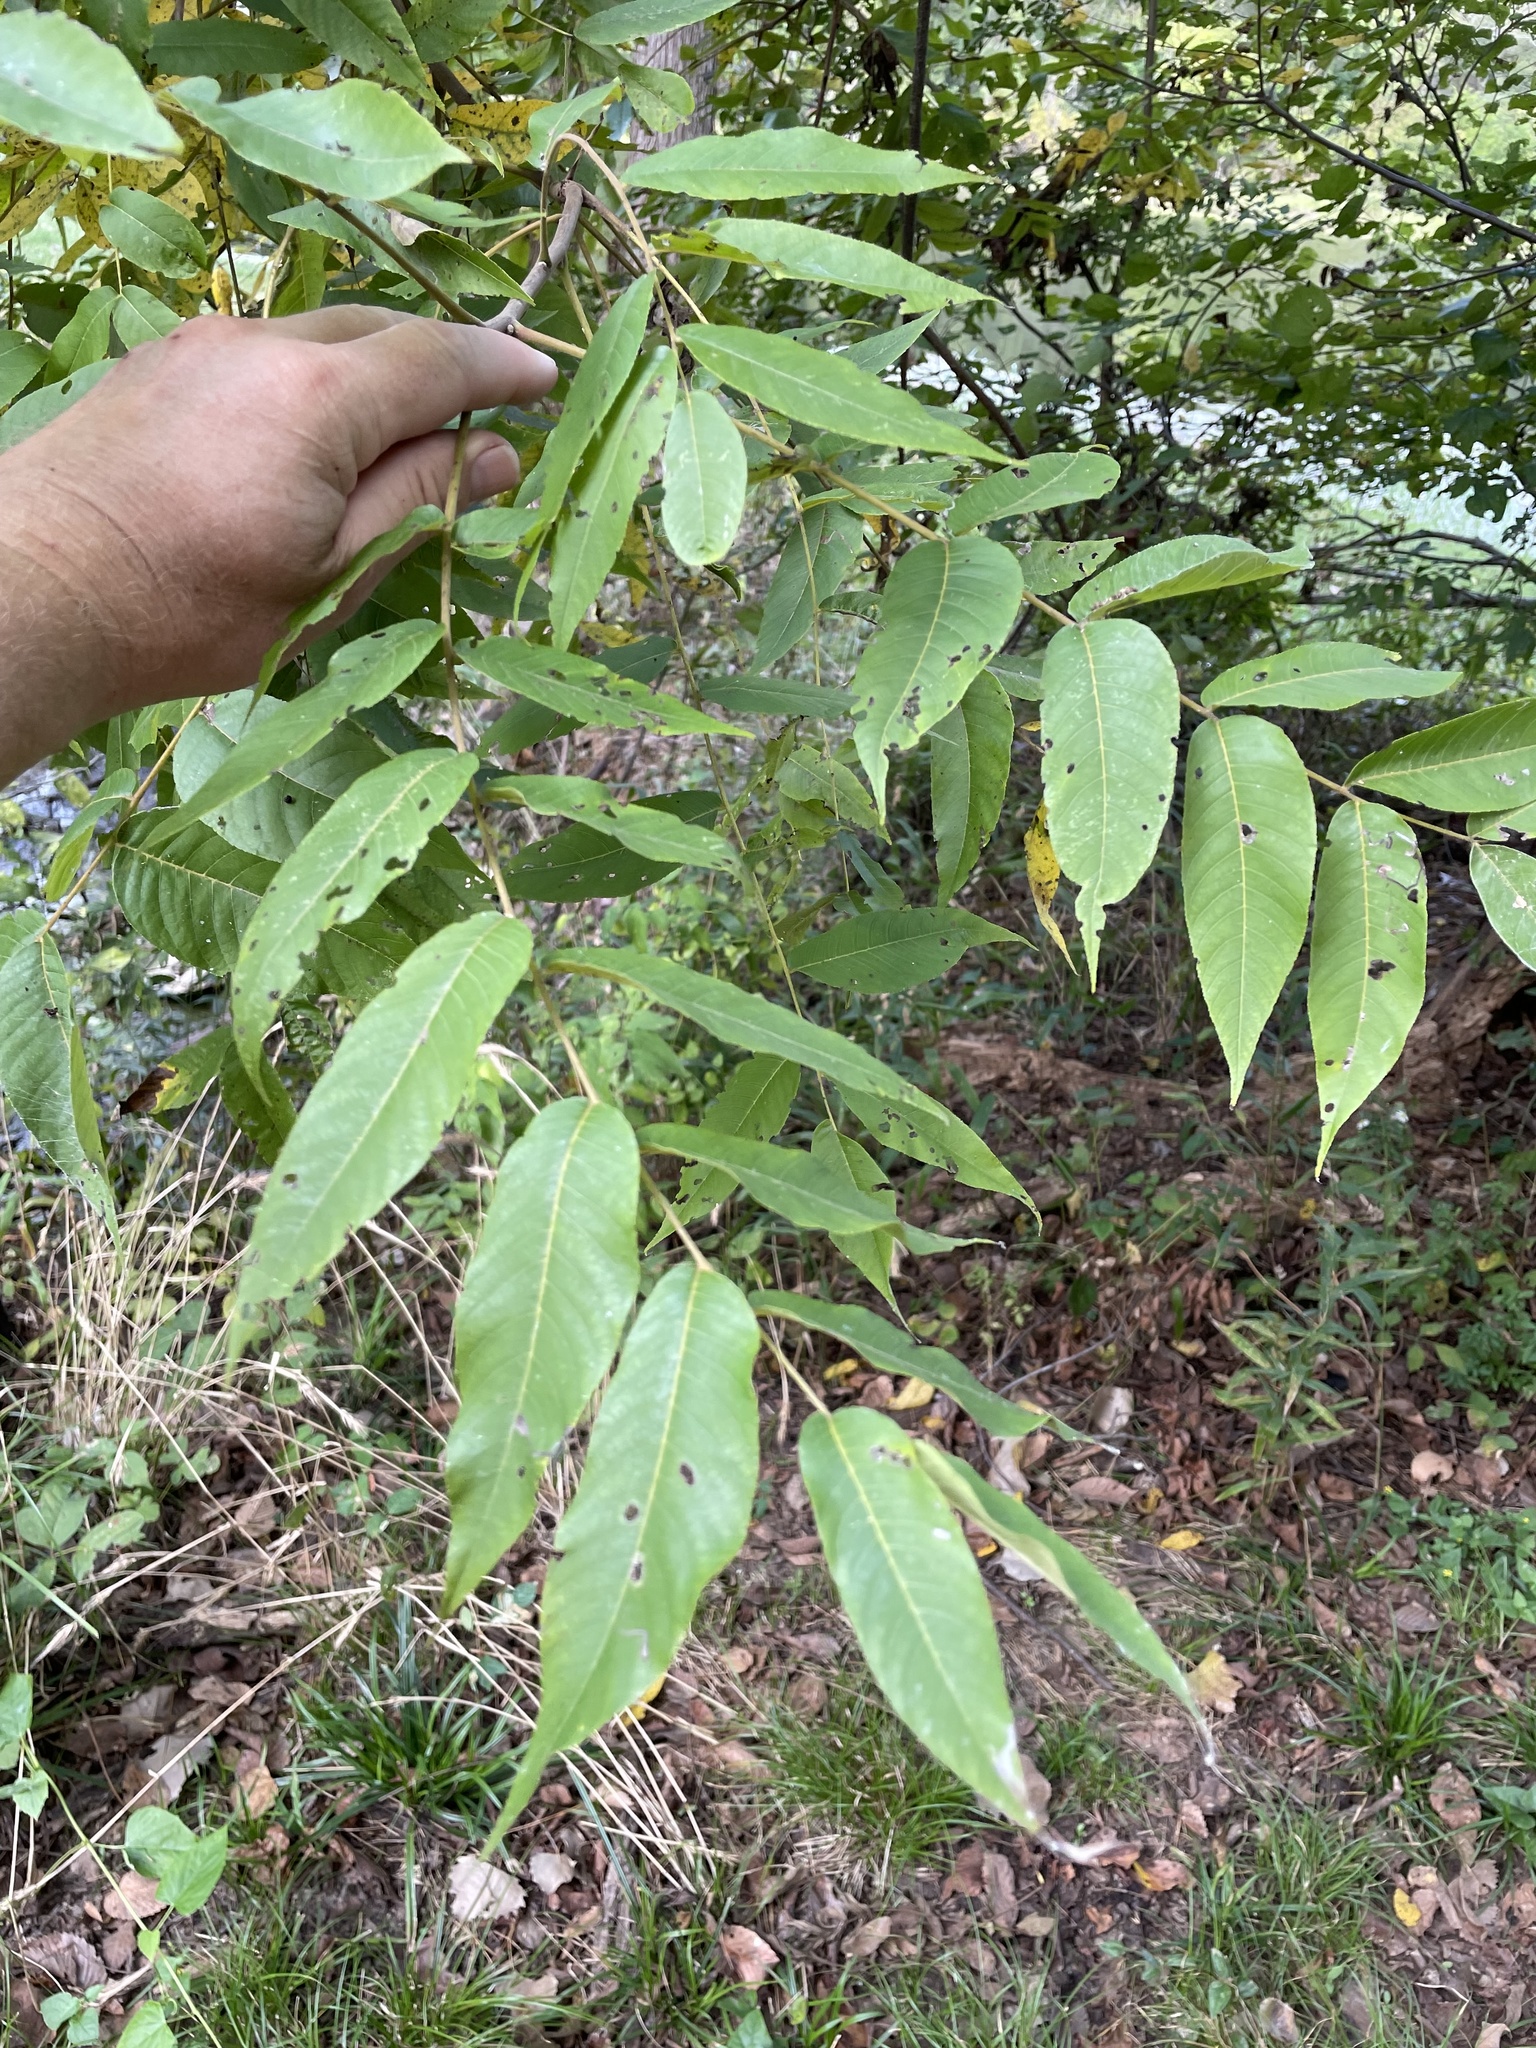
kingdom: Plantae
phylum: Tracheophyta
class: Magnoliopsida
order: Fagales
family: Juglandaceae
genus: Juglans
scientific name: Juglans nigra
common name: Black walnut
